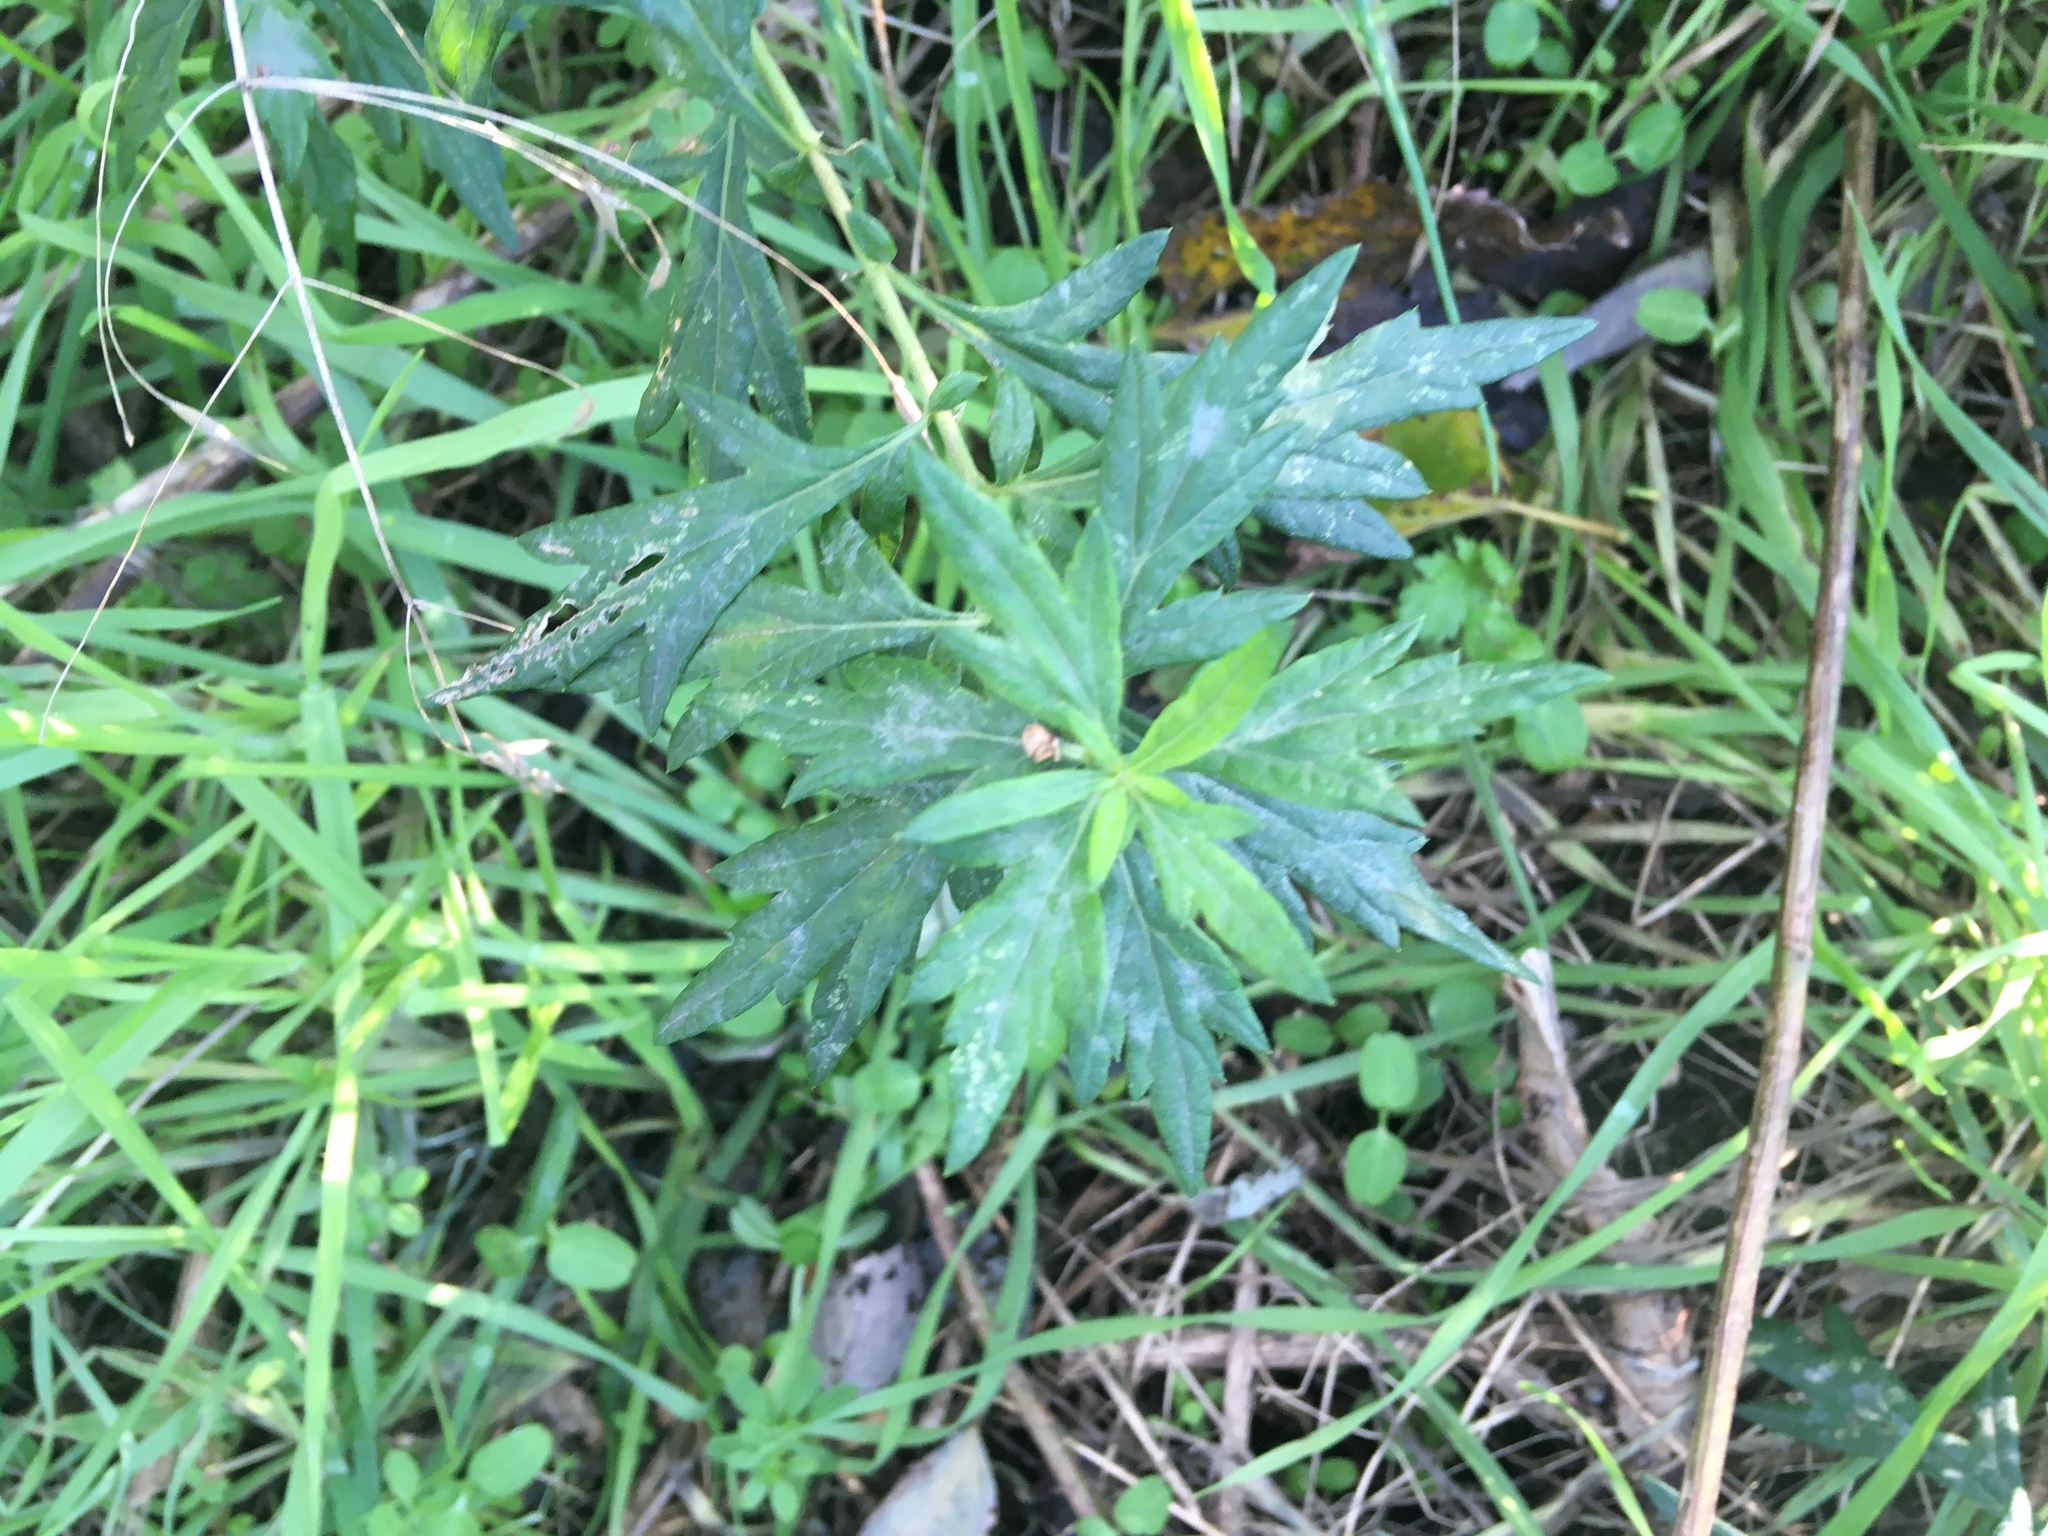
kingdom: Plantae
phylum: Tracheophyta
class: Magnoliopsida
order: Asterales
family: Asteraceae
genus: Artemisia
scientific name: Artemisia vulgaris
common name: Mugwort
